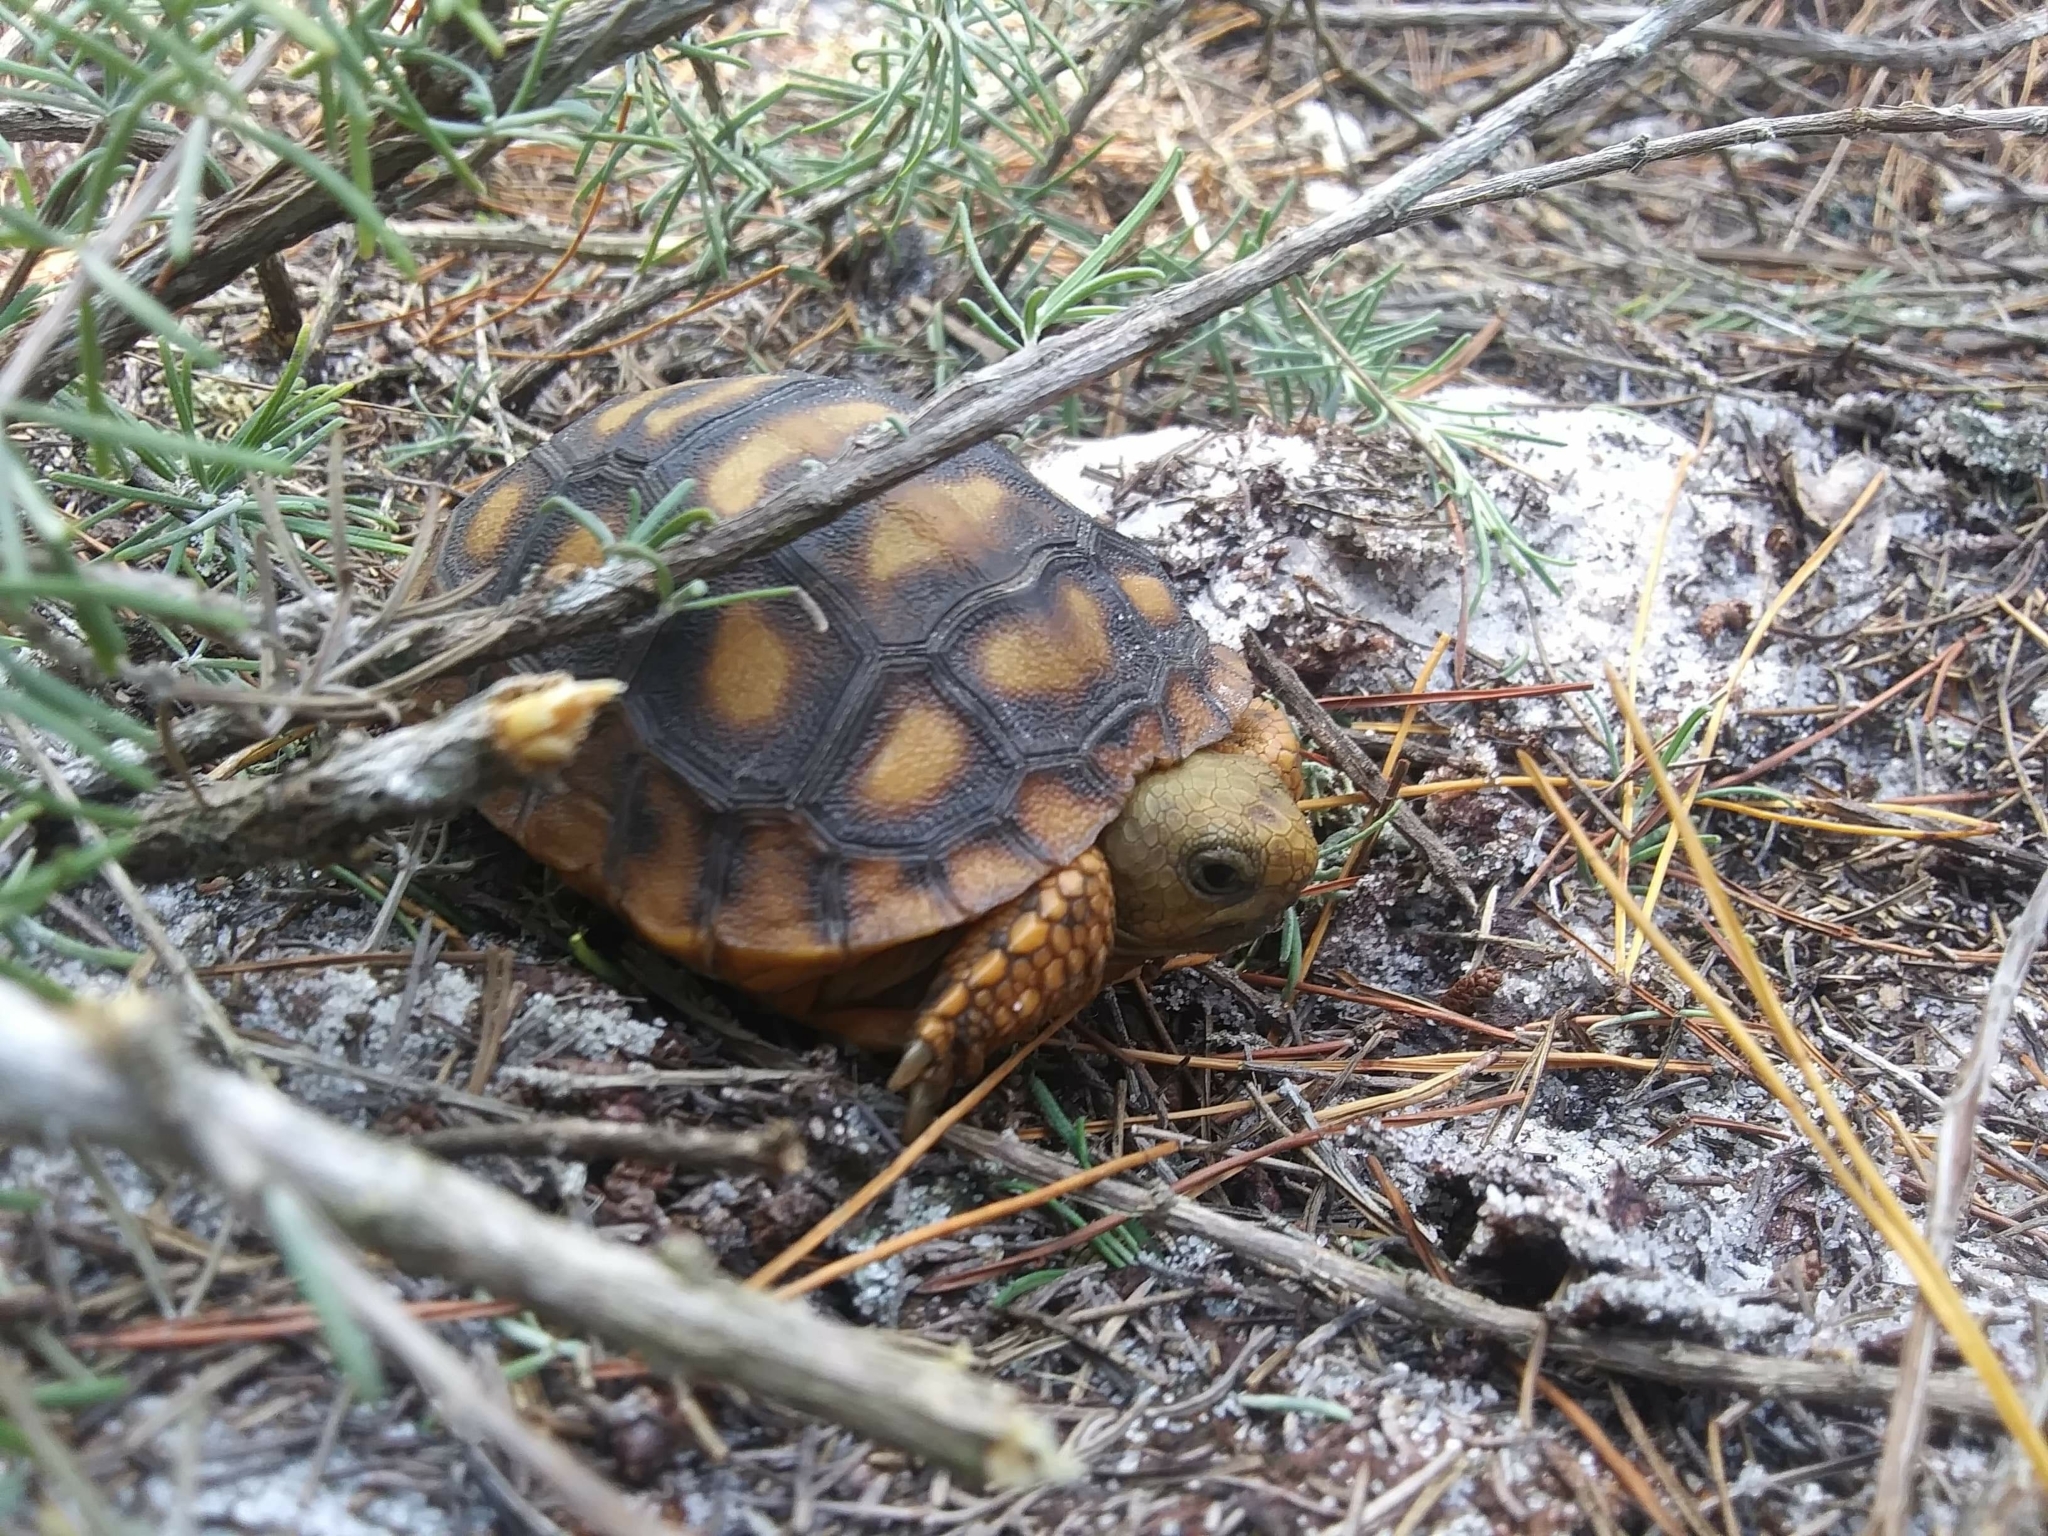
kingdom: Animalia
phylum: Chordata
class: Testudines
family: Testudinidae
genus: Gopherus
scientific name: Gopherus polyphemus
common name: Florida gopher tortoise
